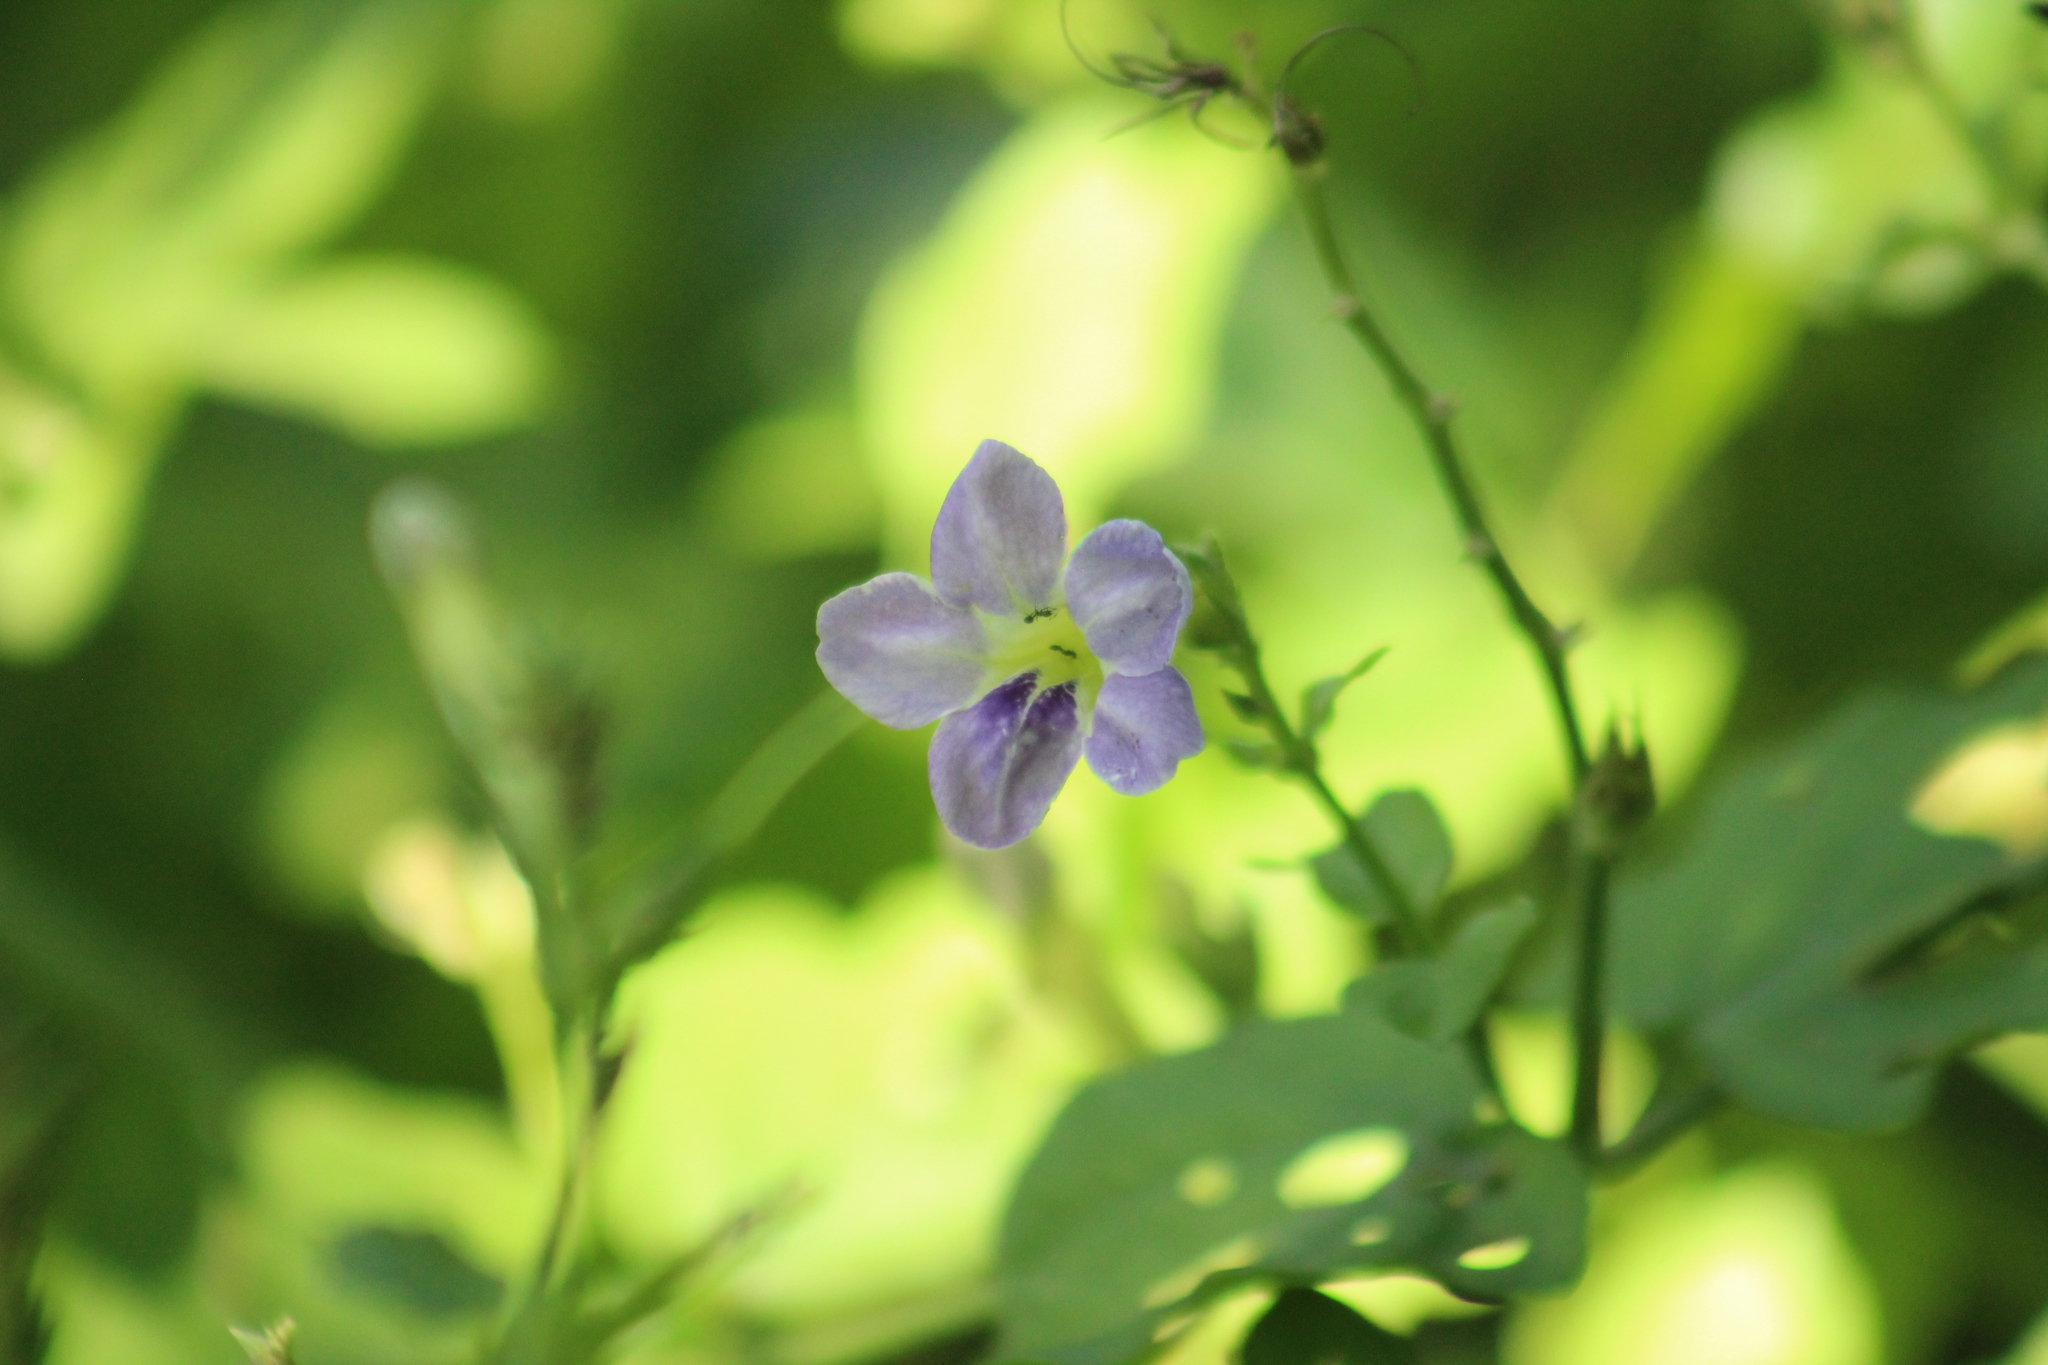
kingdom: Plantae
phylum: Tracheophyta
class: Magnoliopsida
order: Lamiales
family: Acanthaceae
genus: Asystasia
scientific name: Asystasia gangetica
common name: Chinese violet
